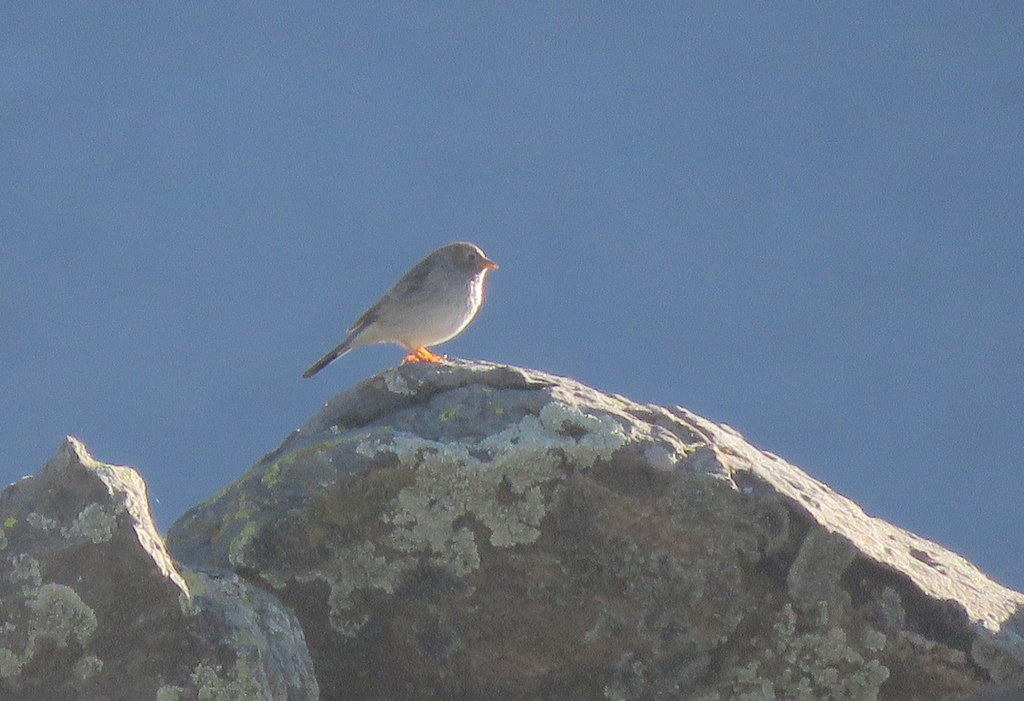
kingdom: Animalia
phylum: Chordata
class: Aves
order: Passeriformes
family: Thraupidae
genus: Porphyrospiza
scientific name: Porphyrospiza alaudina
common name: Band-tailed sierra finch
